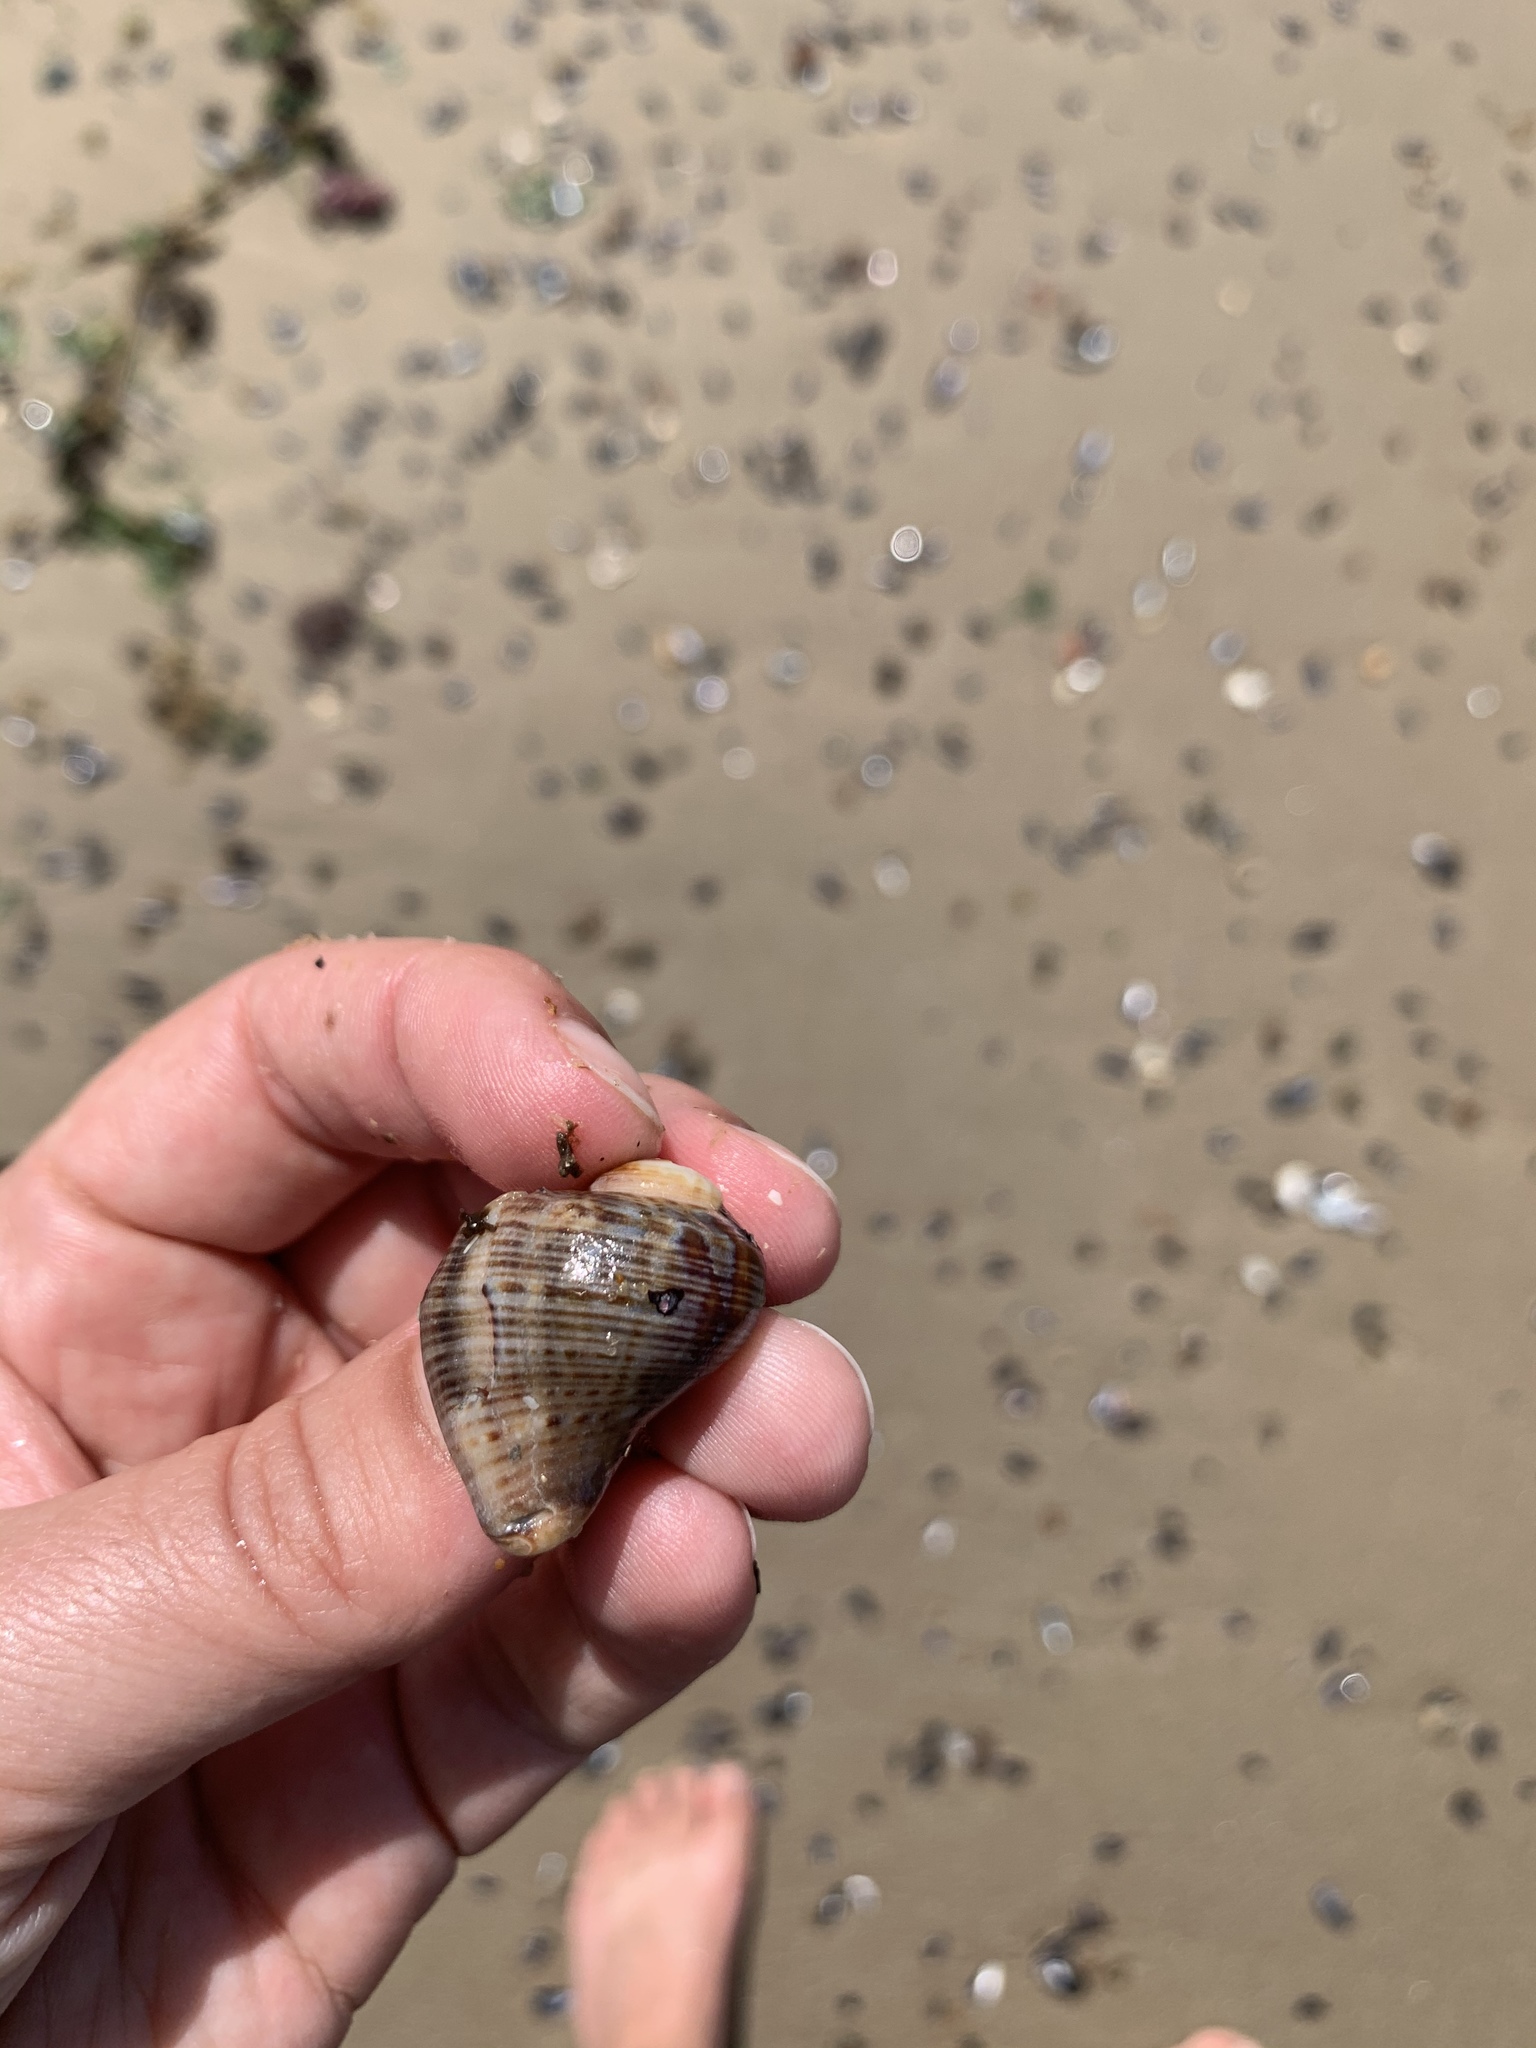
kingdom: Animalia
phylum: Mollusca
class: Gastropoda
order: Neogastropoda
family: Muricidae
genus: Stramonita
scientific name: Stramonita brasiliensis
